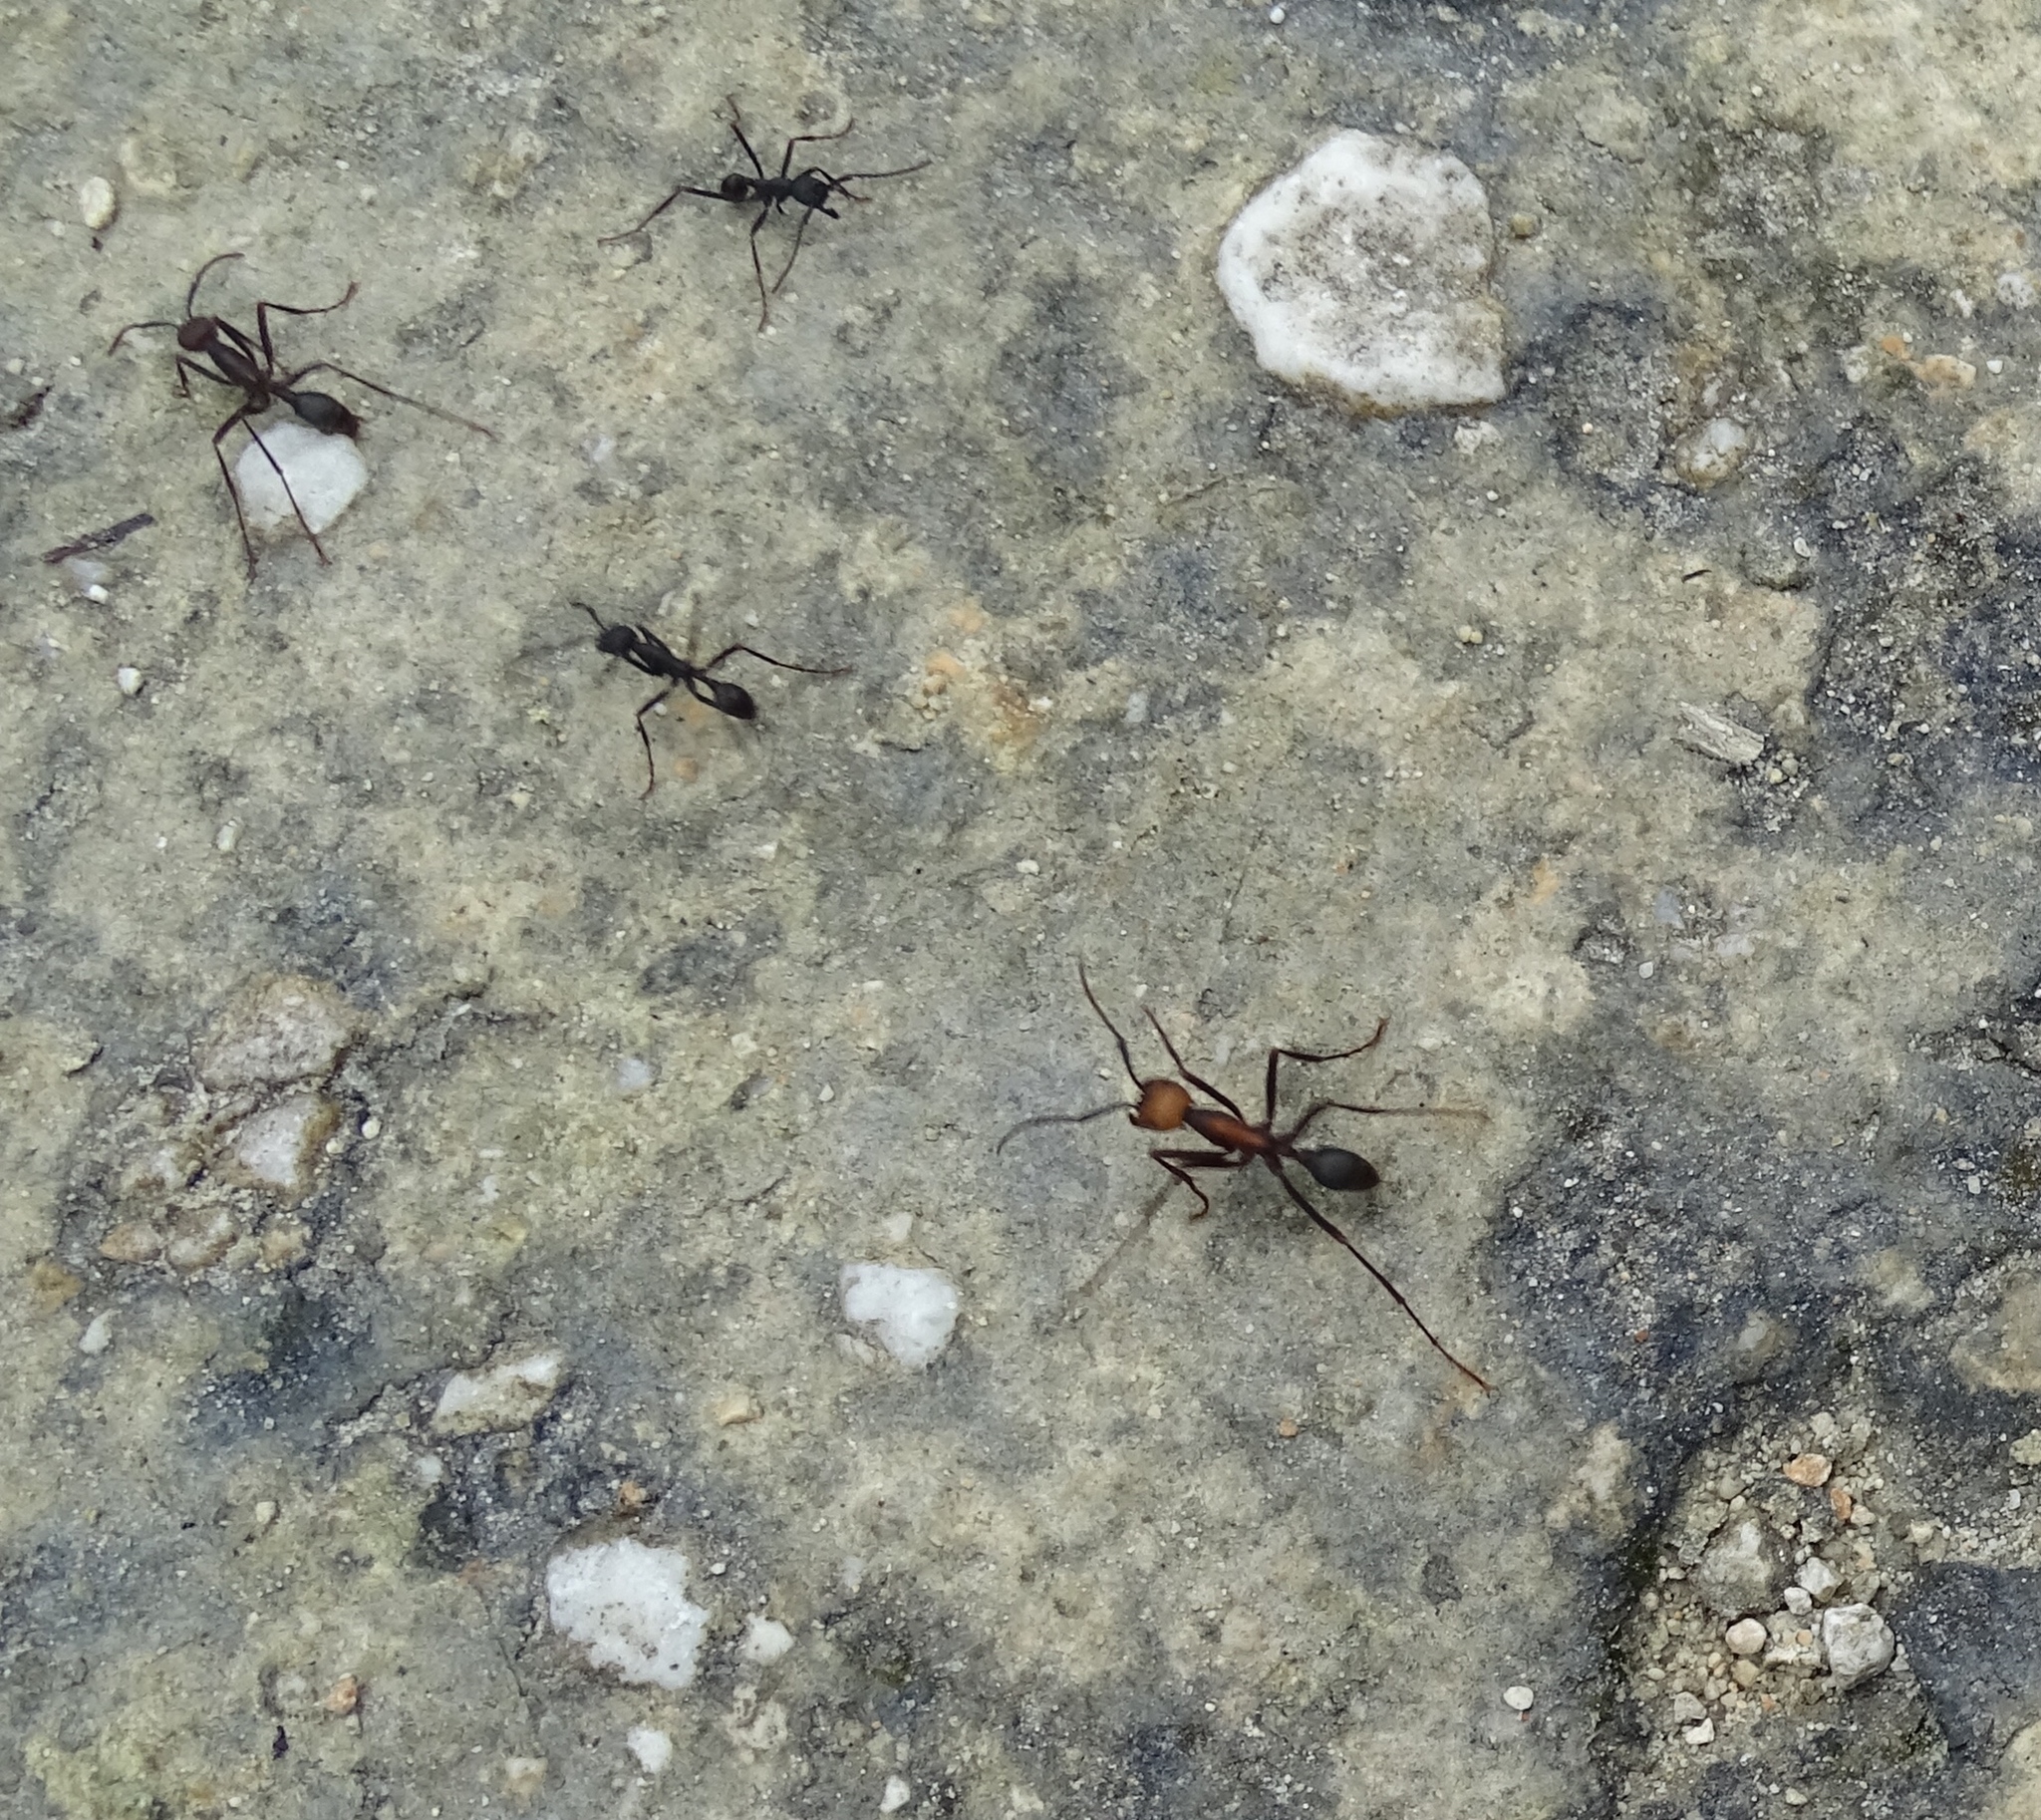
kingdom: Animalia
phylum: Arthropoda
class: Insecta
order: Hymenoptera
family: Formicidae
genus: Eciton
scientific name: Eciton burchellii
